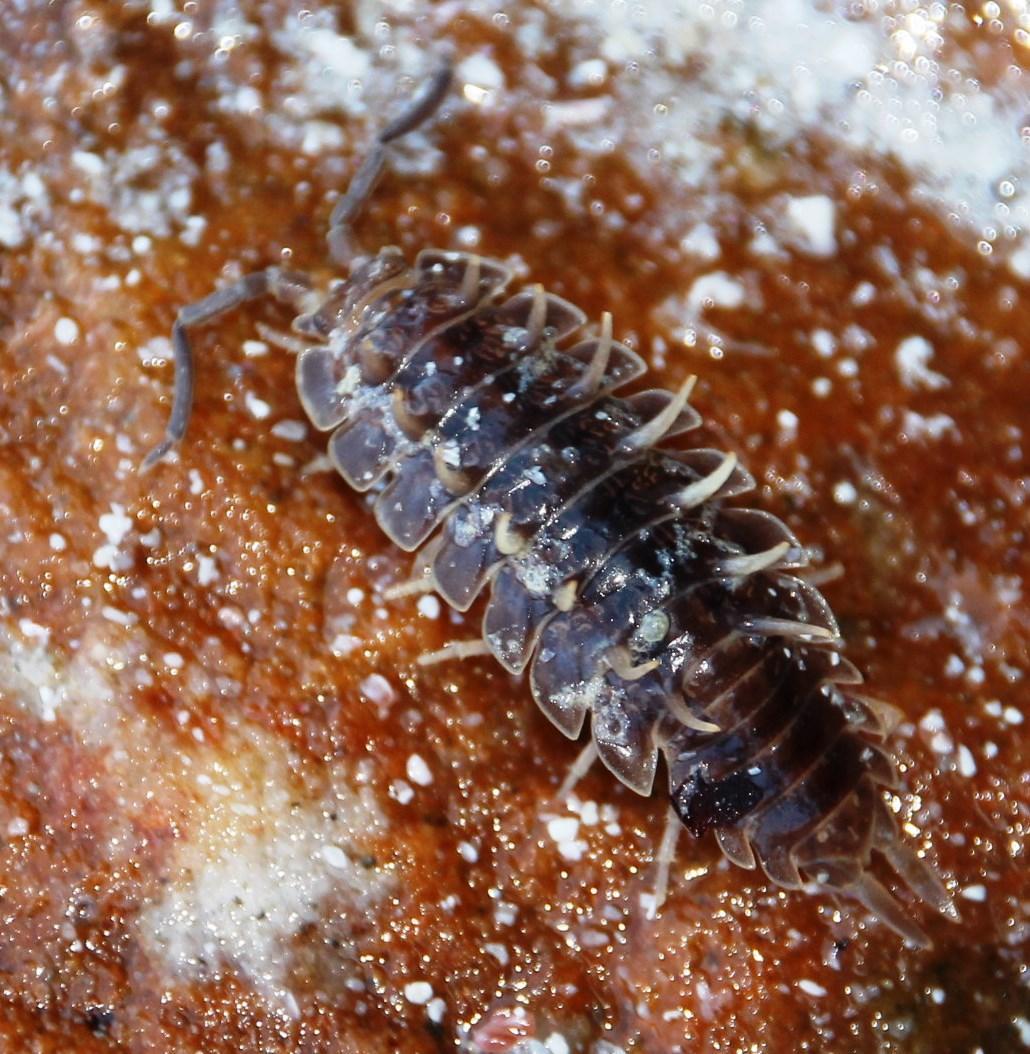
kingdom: Animalia
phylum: Arthropoda
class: Malacostraca
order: Isopoda
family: Detonidae
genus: Deto
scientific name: Deto echinata
